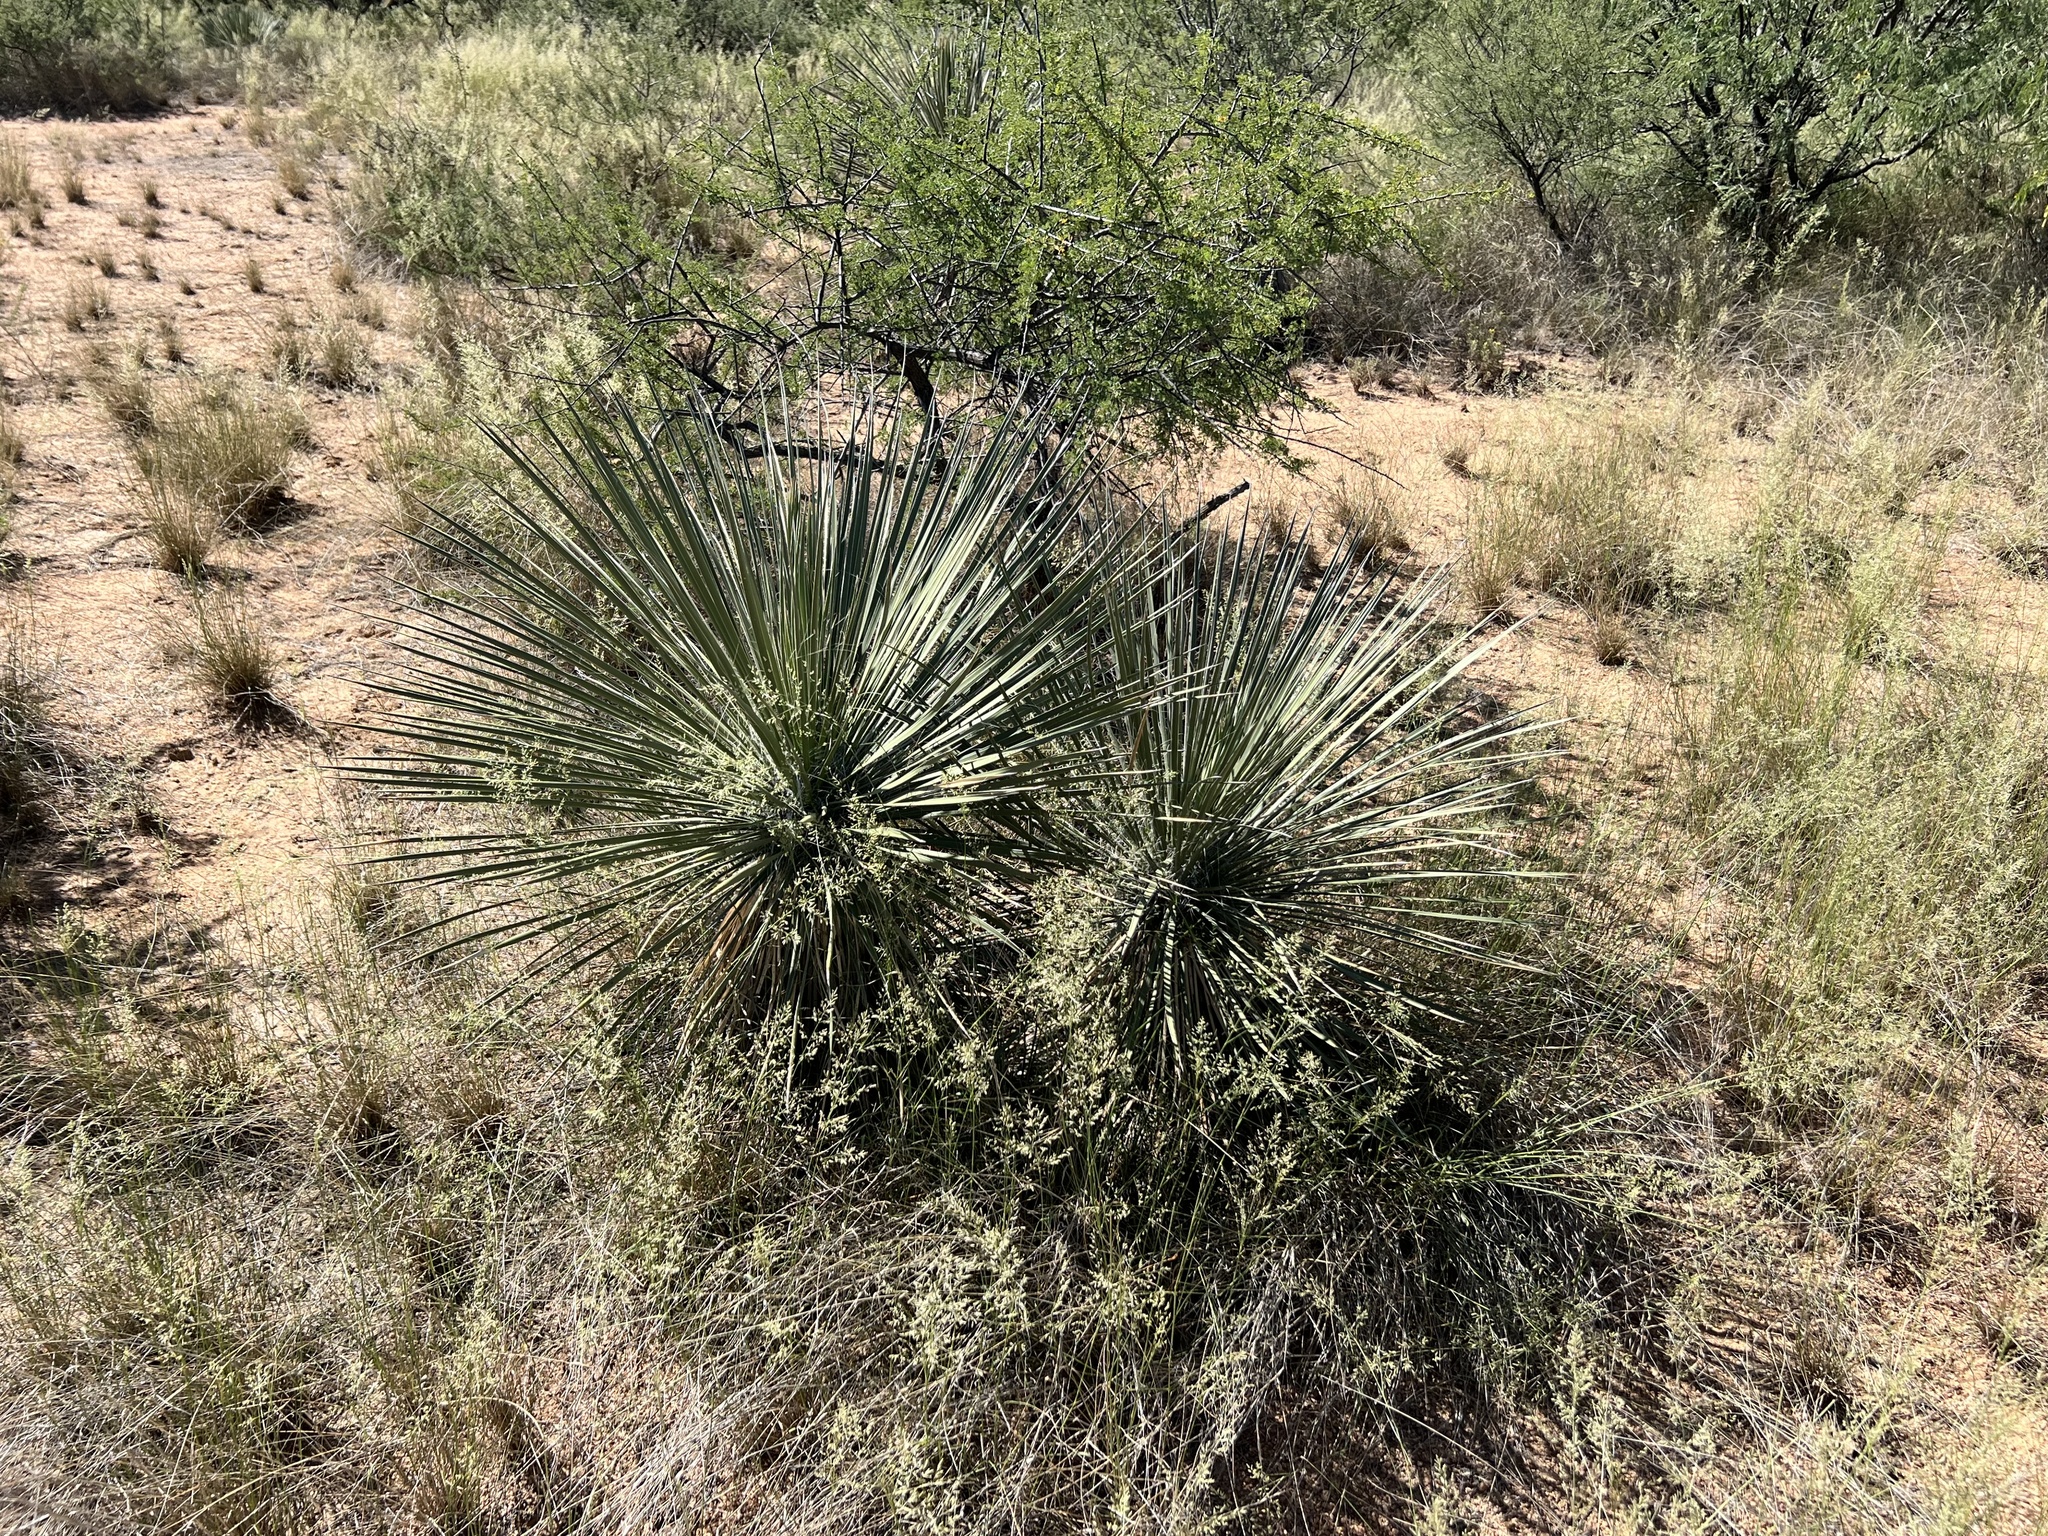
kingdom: Plantae
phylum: Tracheophyta
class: Liliopsida
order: Asparagales
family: Asparagaceae
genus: Yucca
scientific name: Yucca elata
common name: Palmella
